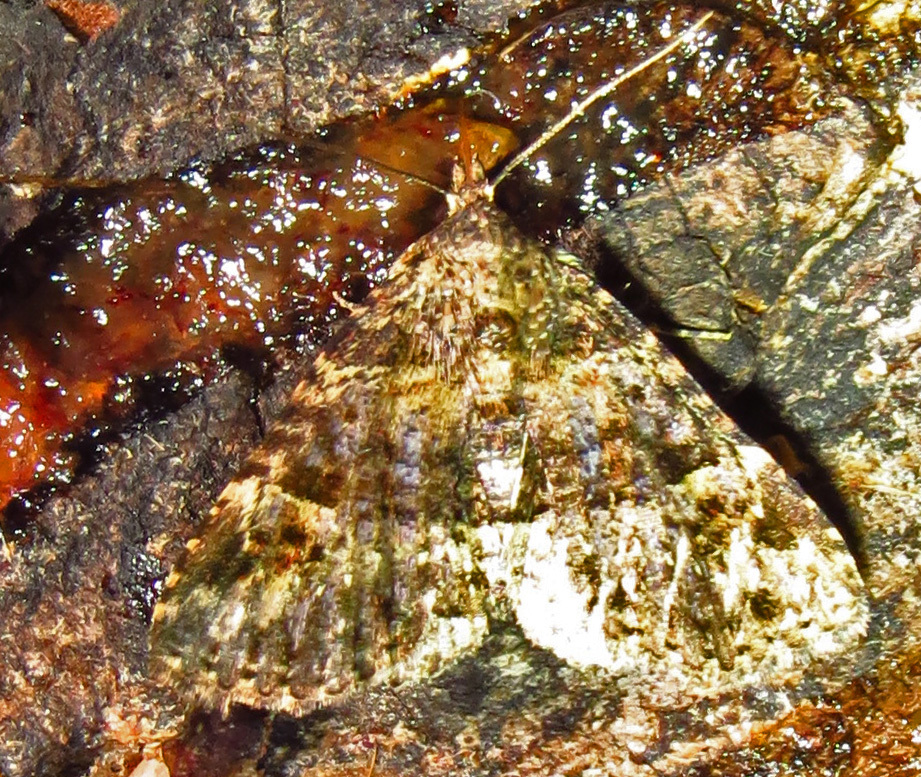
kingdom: Animalia
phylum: Arthropoda
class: Insecta
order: Lepidoptera
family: Erebidae
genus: Metalectra
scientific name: Metalectra discalis
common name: Common fungus moth
